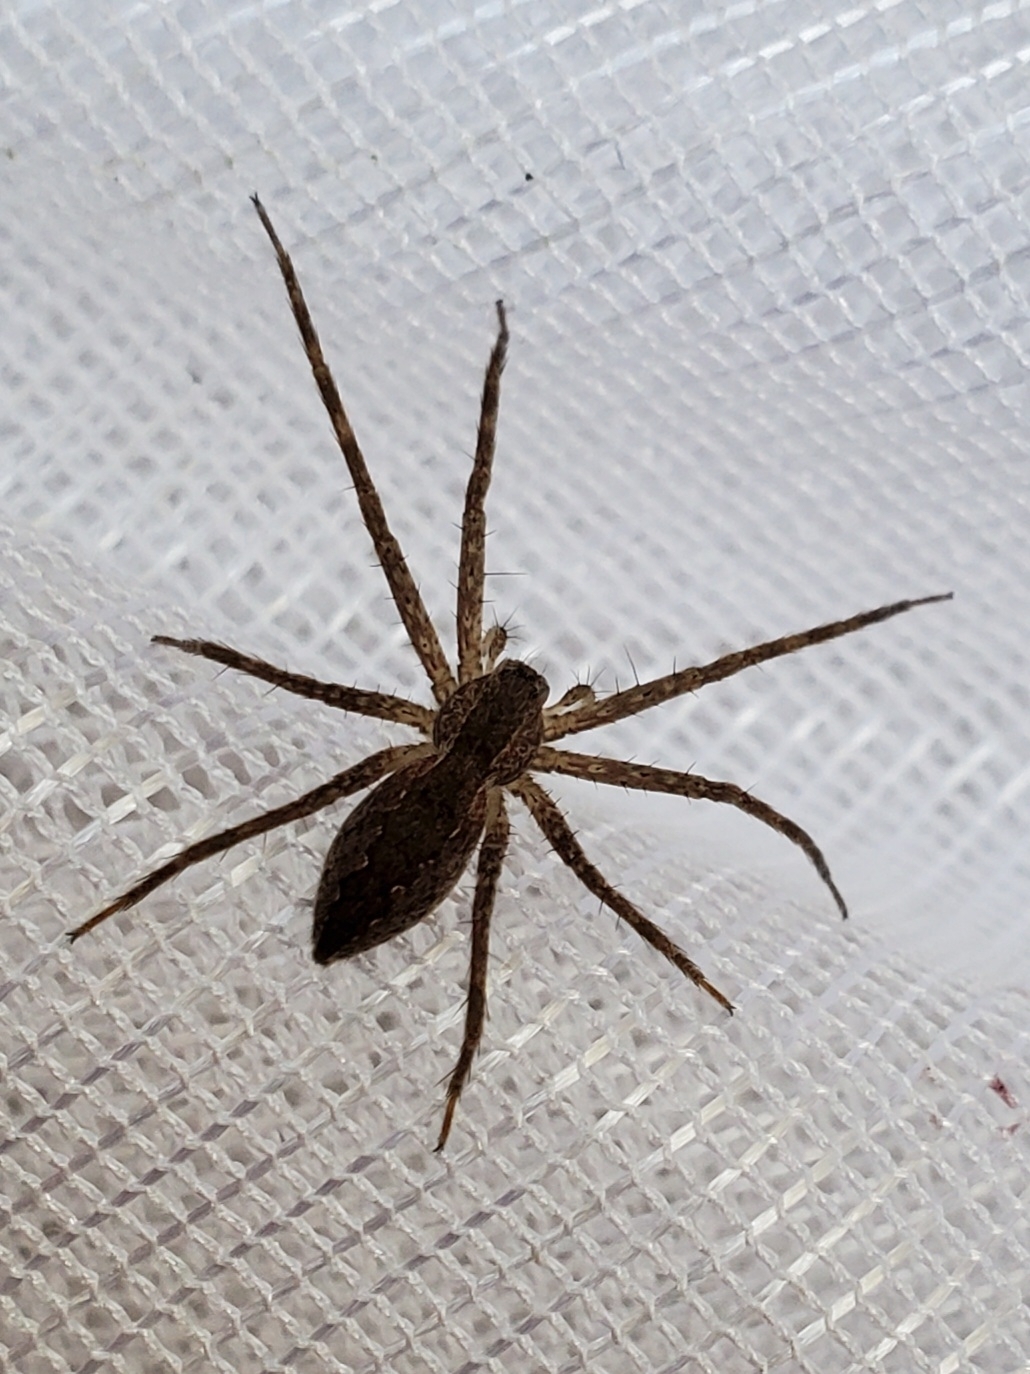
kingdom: Animalia
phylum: Arthropoda
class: Arachnida
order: Araneae
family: Pisauridae
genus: Pisaurina
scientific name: Pisaurina mira
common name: American nursery web spider
